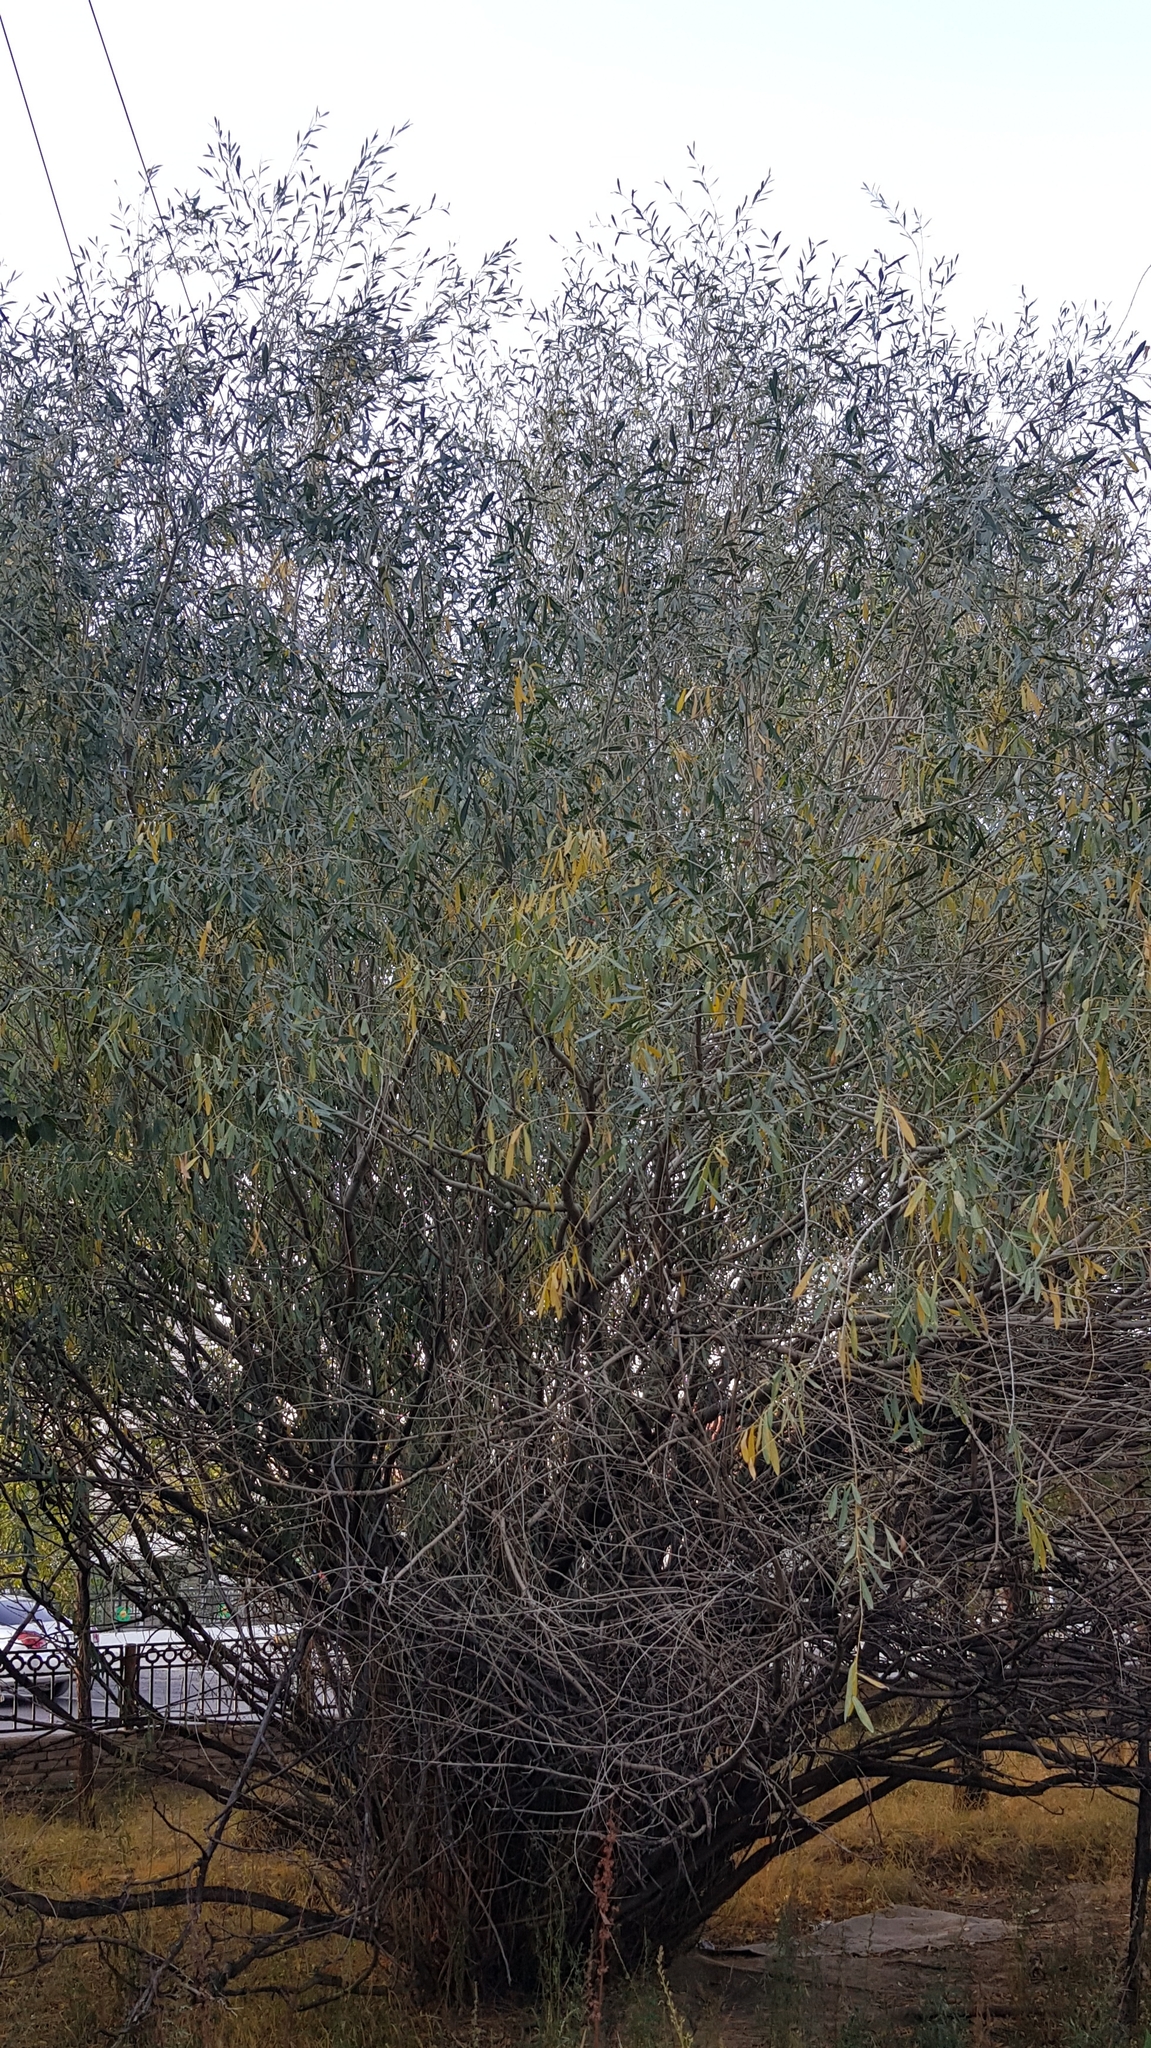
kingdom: Plantae
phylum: Tracheophyta
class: Magnoliopsida
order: Rosales
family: Elaeagnaceae
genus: Elaeagnus
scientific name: Elaeagnus angustifolia
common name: Russian olive
